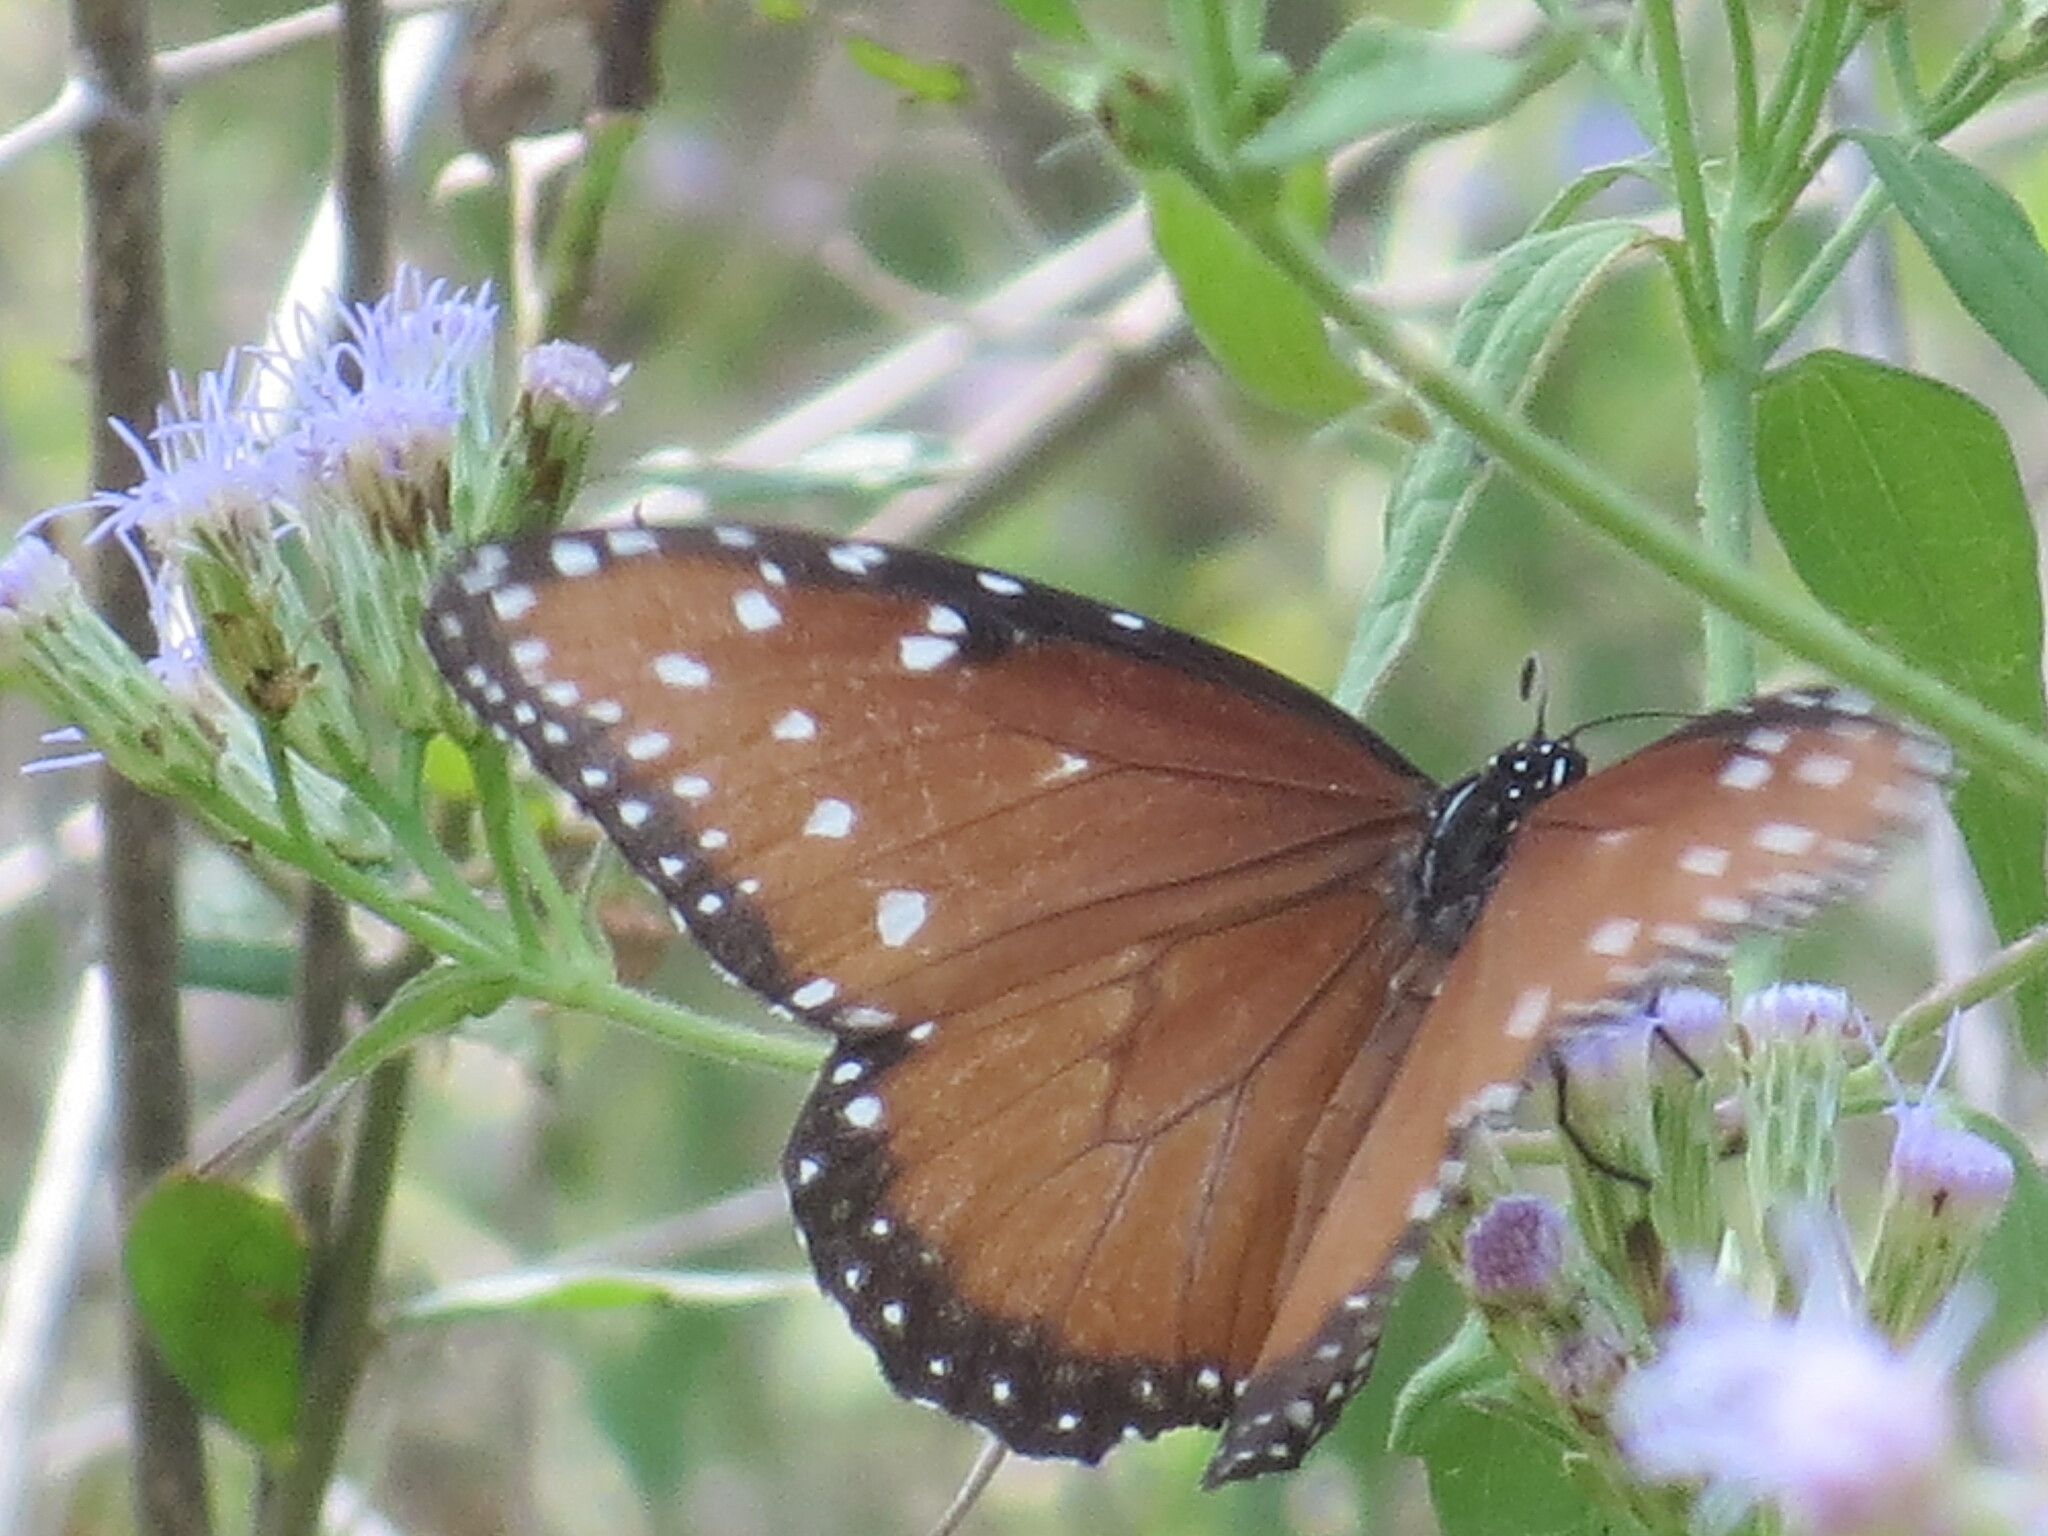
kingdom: Animalia
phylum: Arthropoda
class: Insecta
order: Lepidoptera
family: Nymphalidae
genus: Danaus
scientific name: Danaus gilippus
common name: Queen
